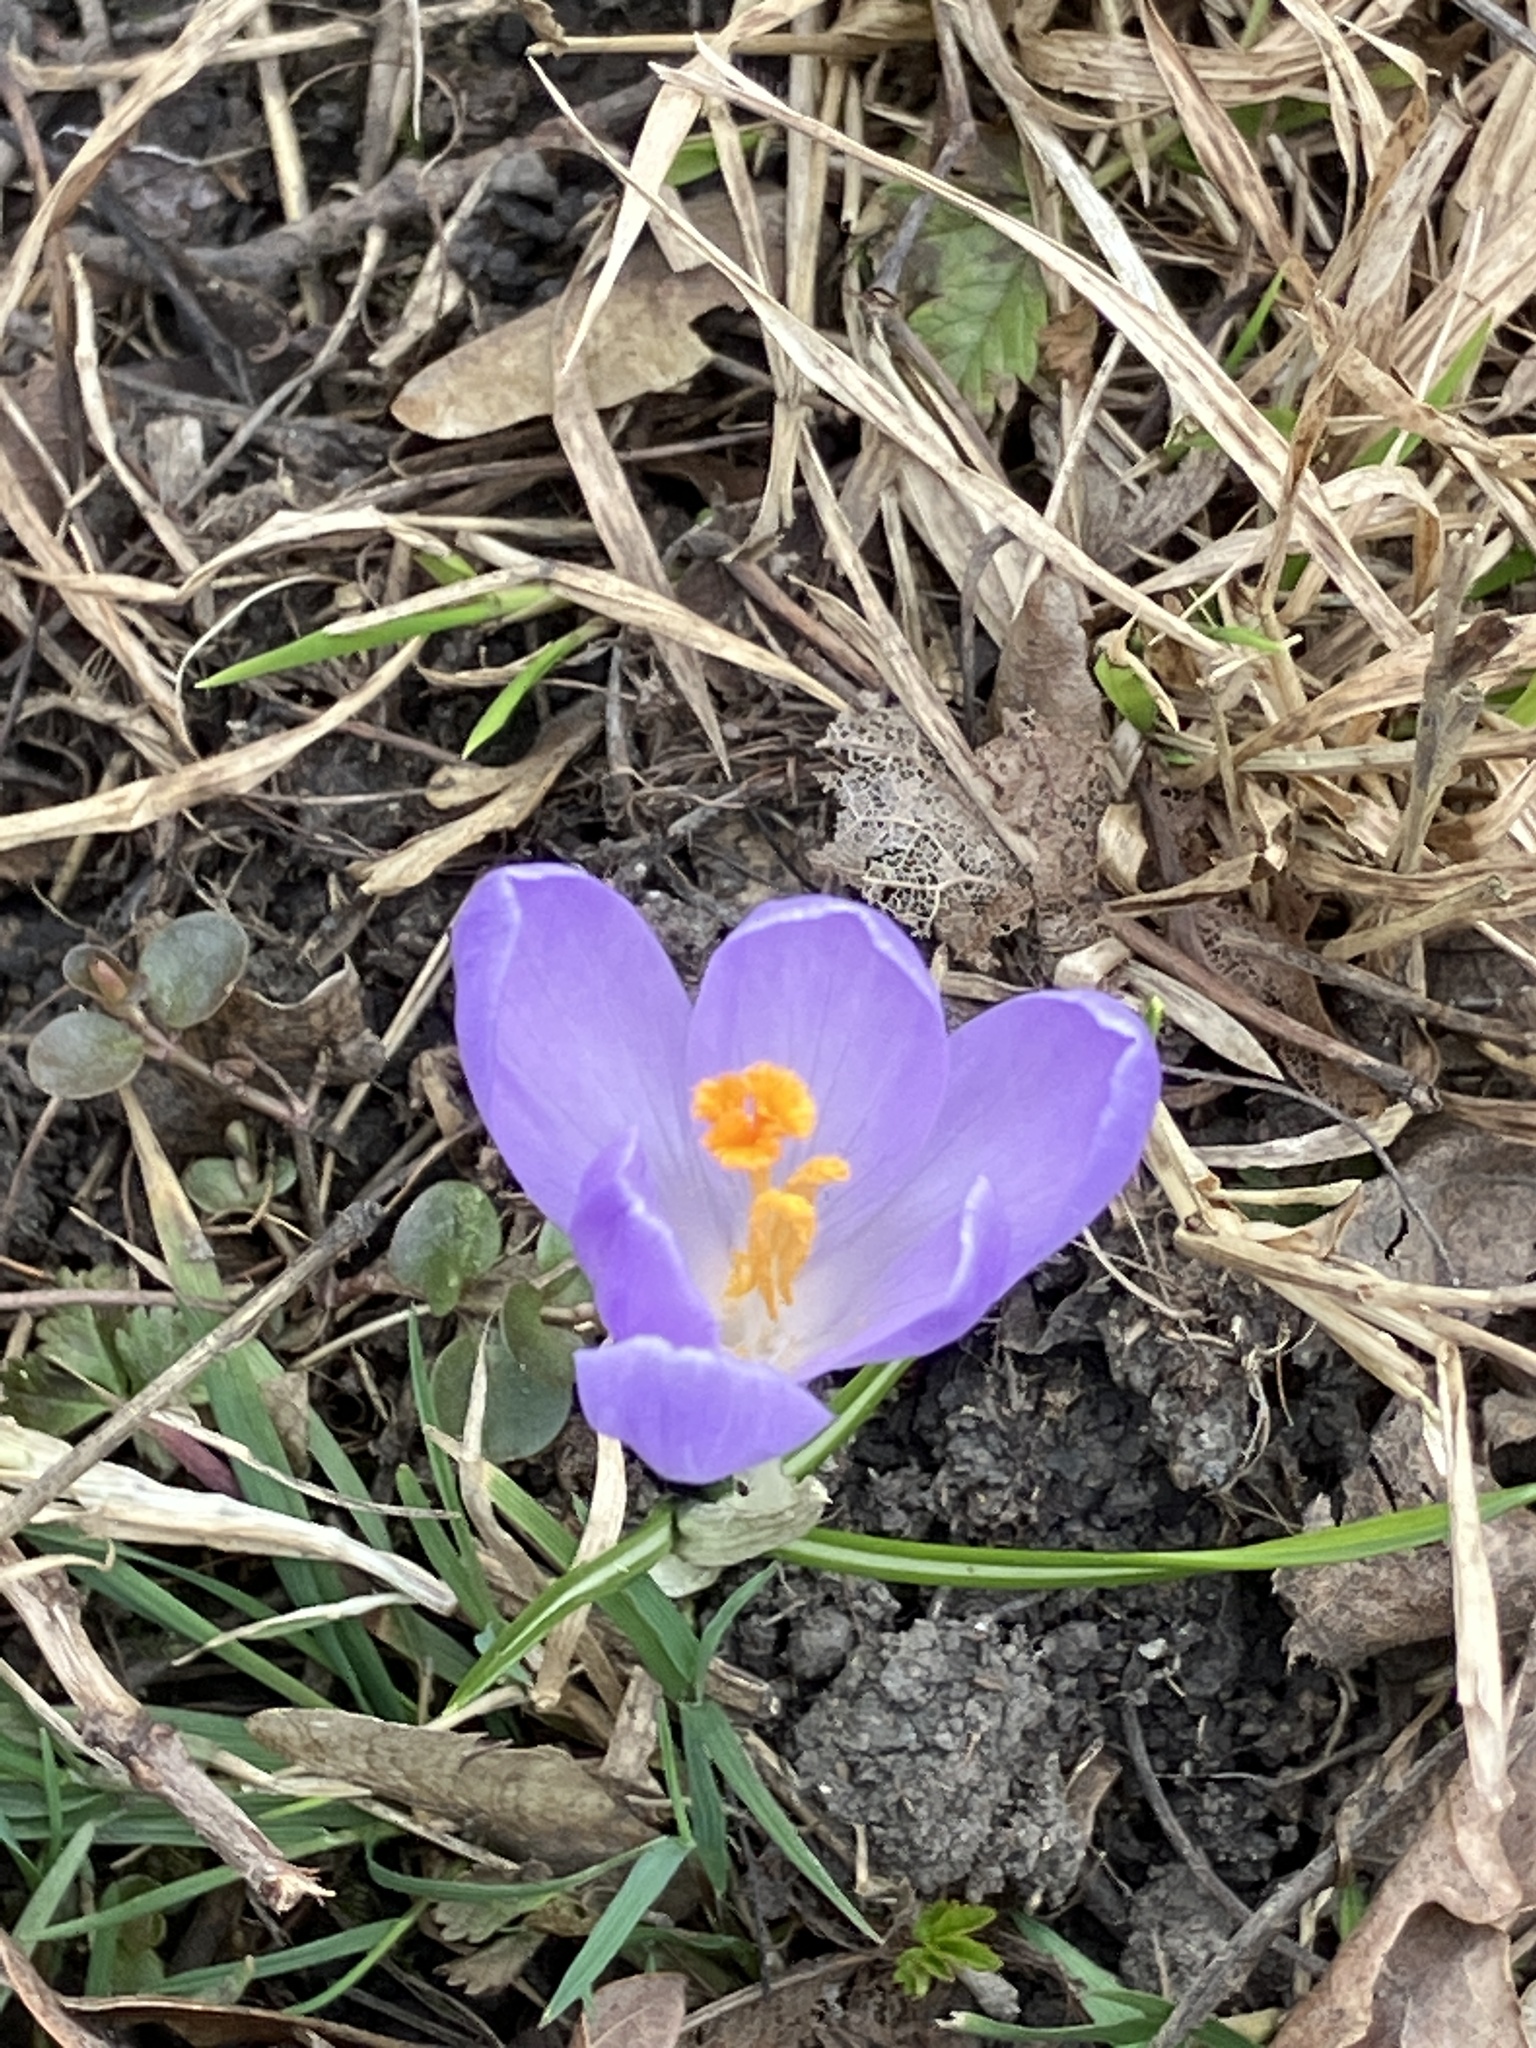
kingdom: Plantae
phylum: Tracheophyta
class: Liliopsida
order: Asparagales
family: Iridaceae
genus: Crocus
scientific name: Crocus vernus
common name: Spring crocus
